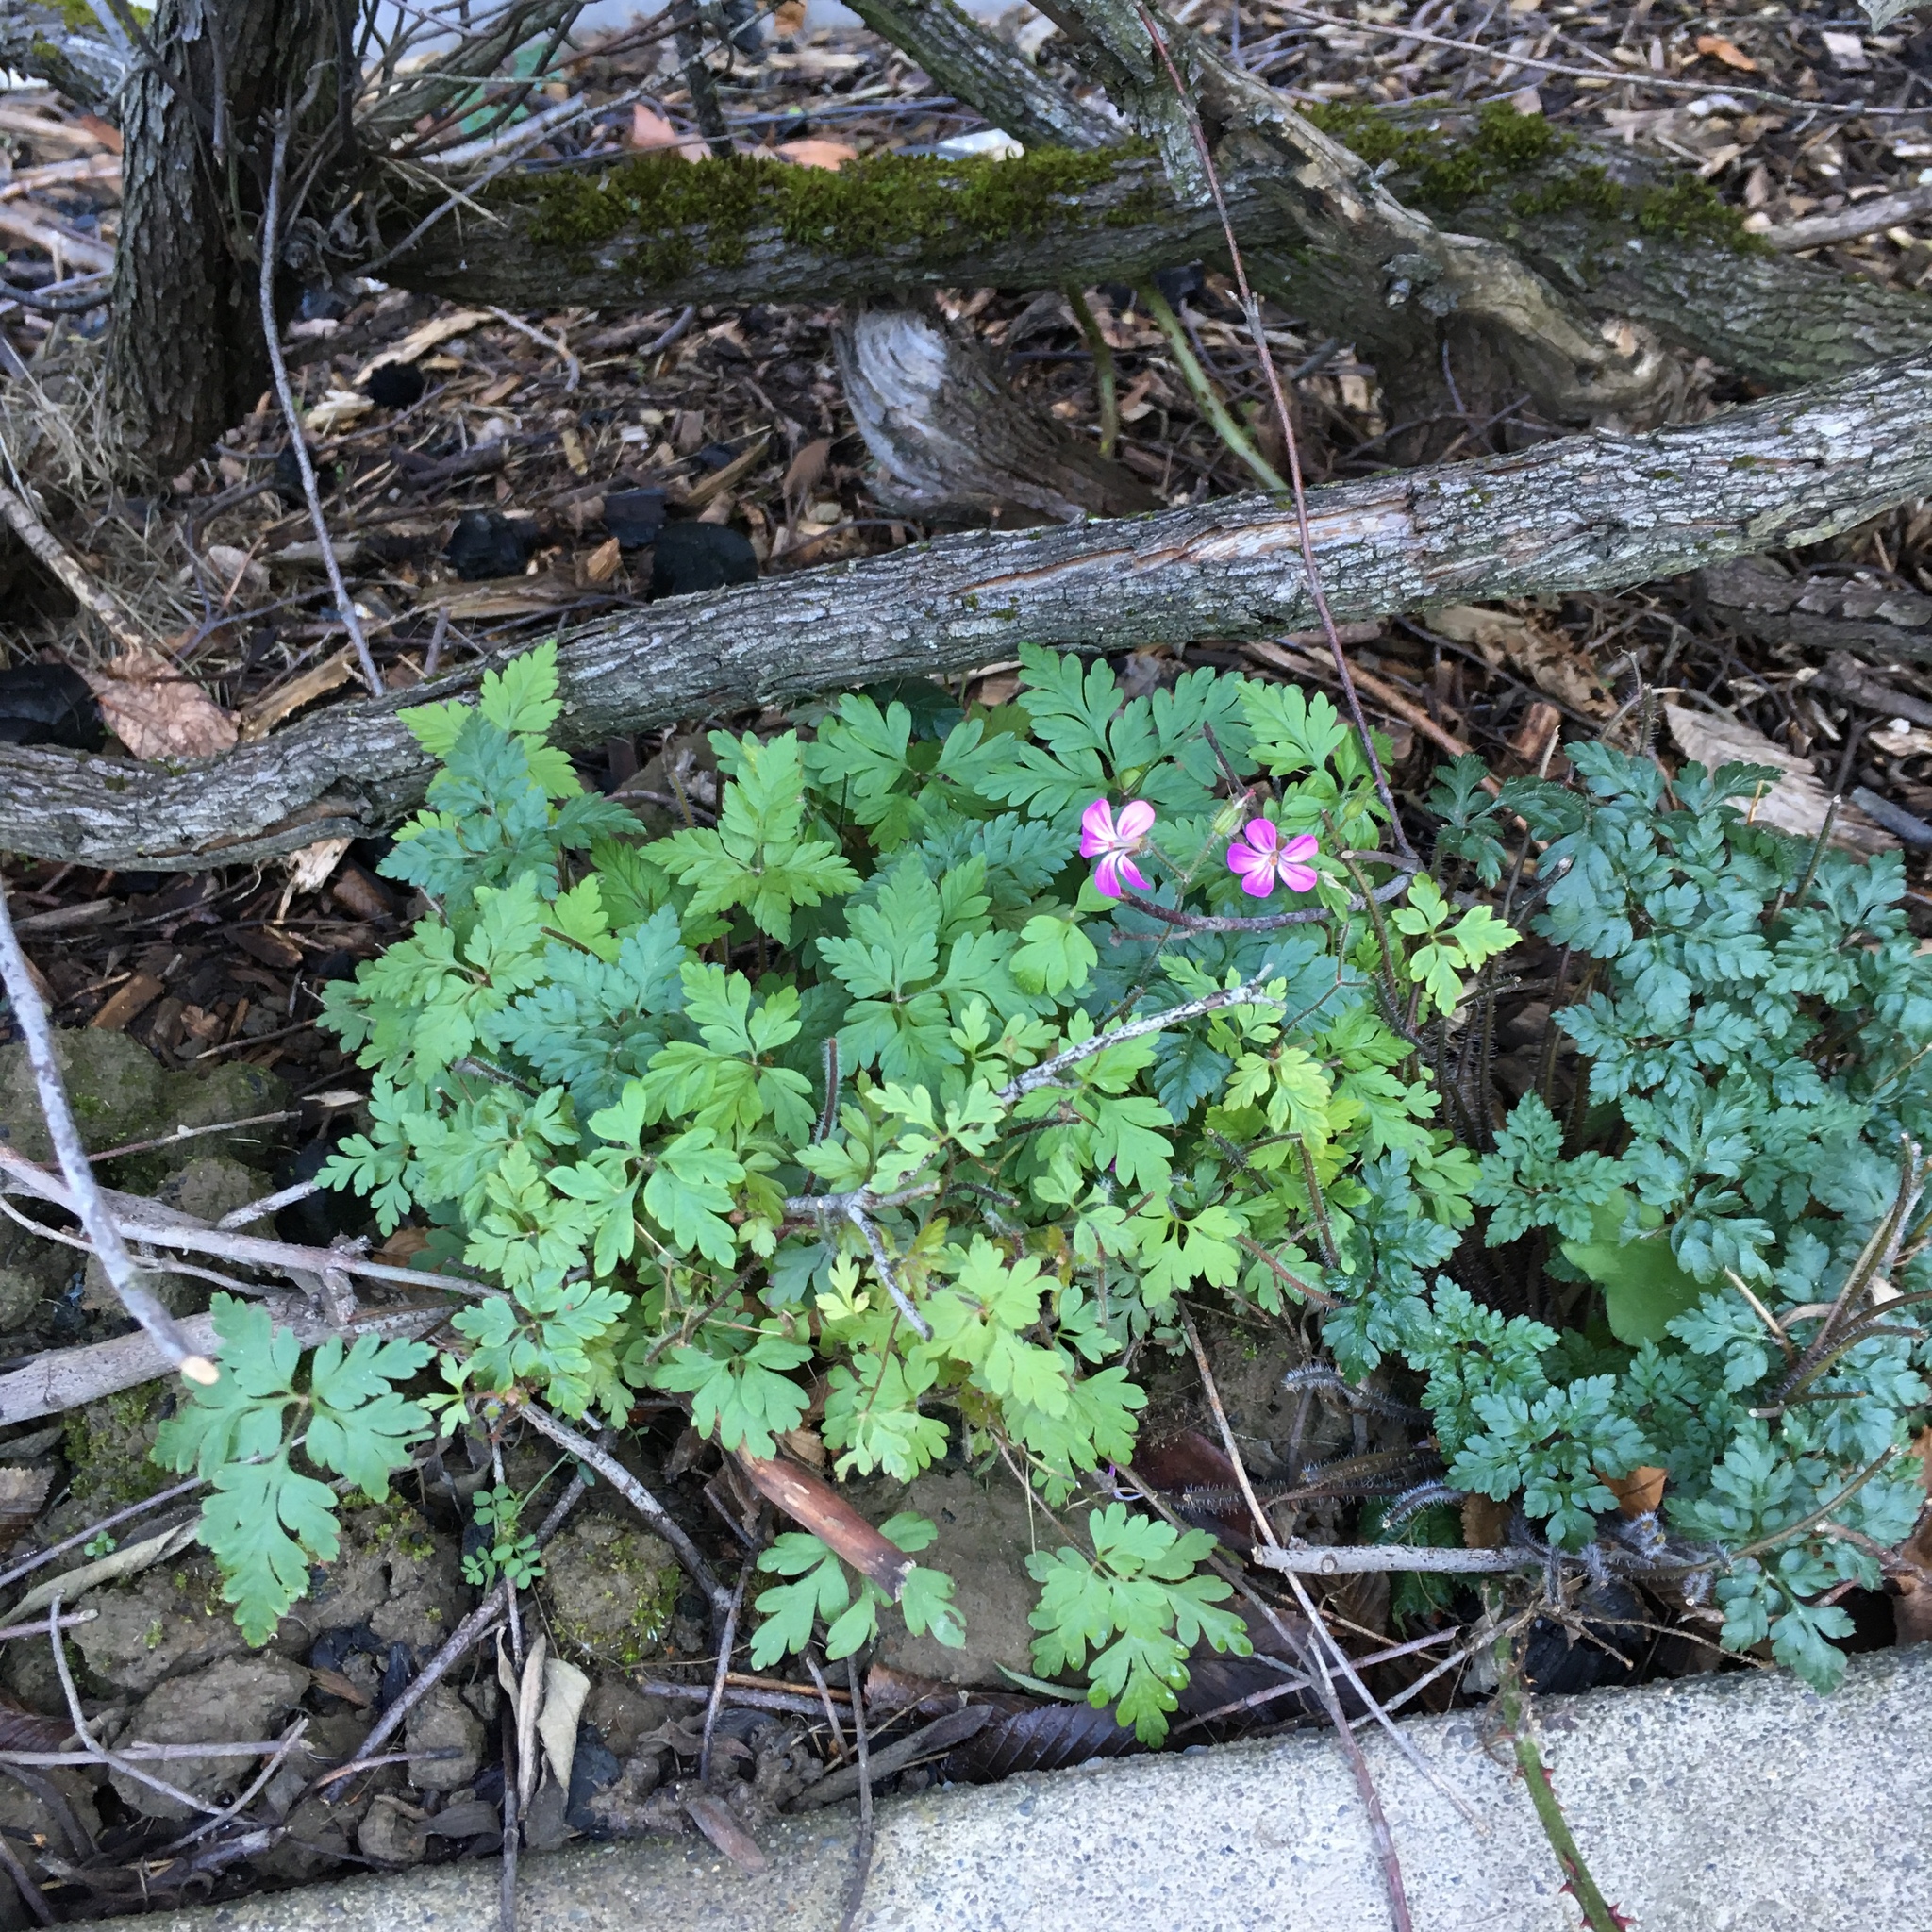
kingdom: Plantae
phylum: Tracheophyta
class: Magnoliopsida
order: Geraniales
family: Geraniaceae
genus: Geranium
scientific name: Geranium robertianum
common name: Herb-robert
